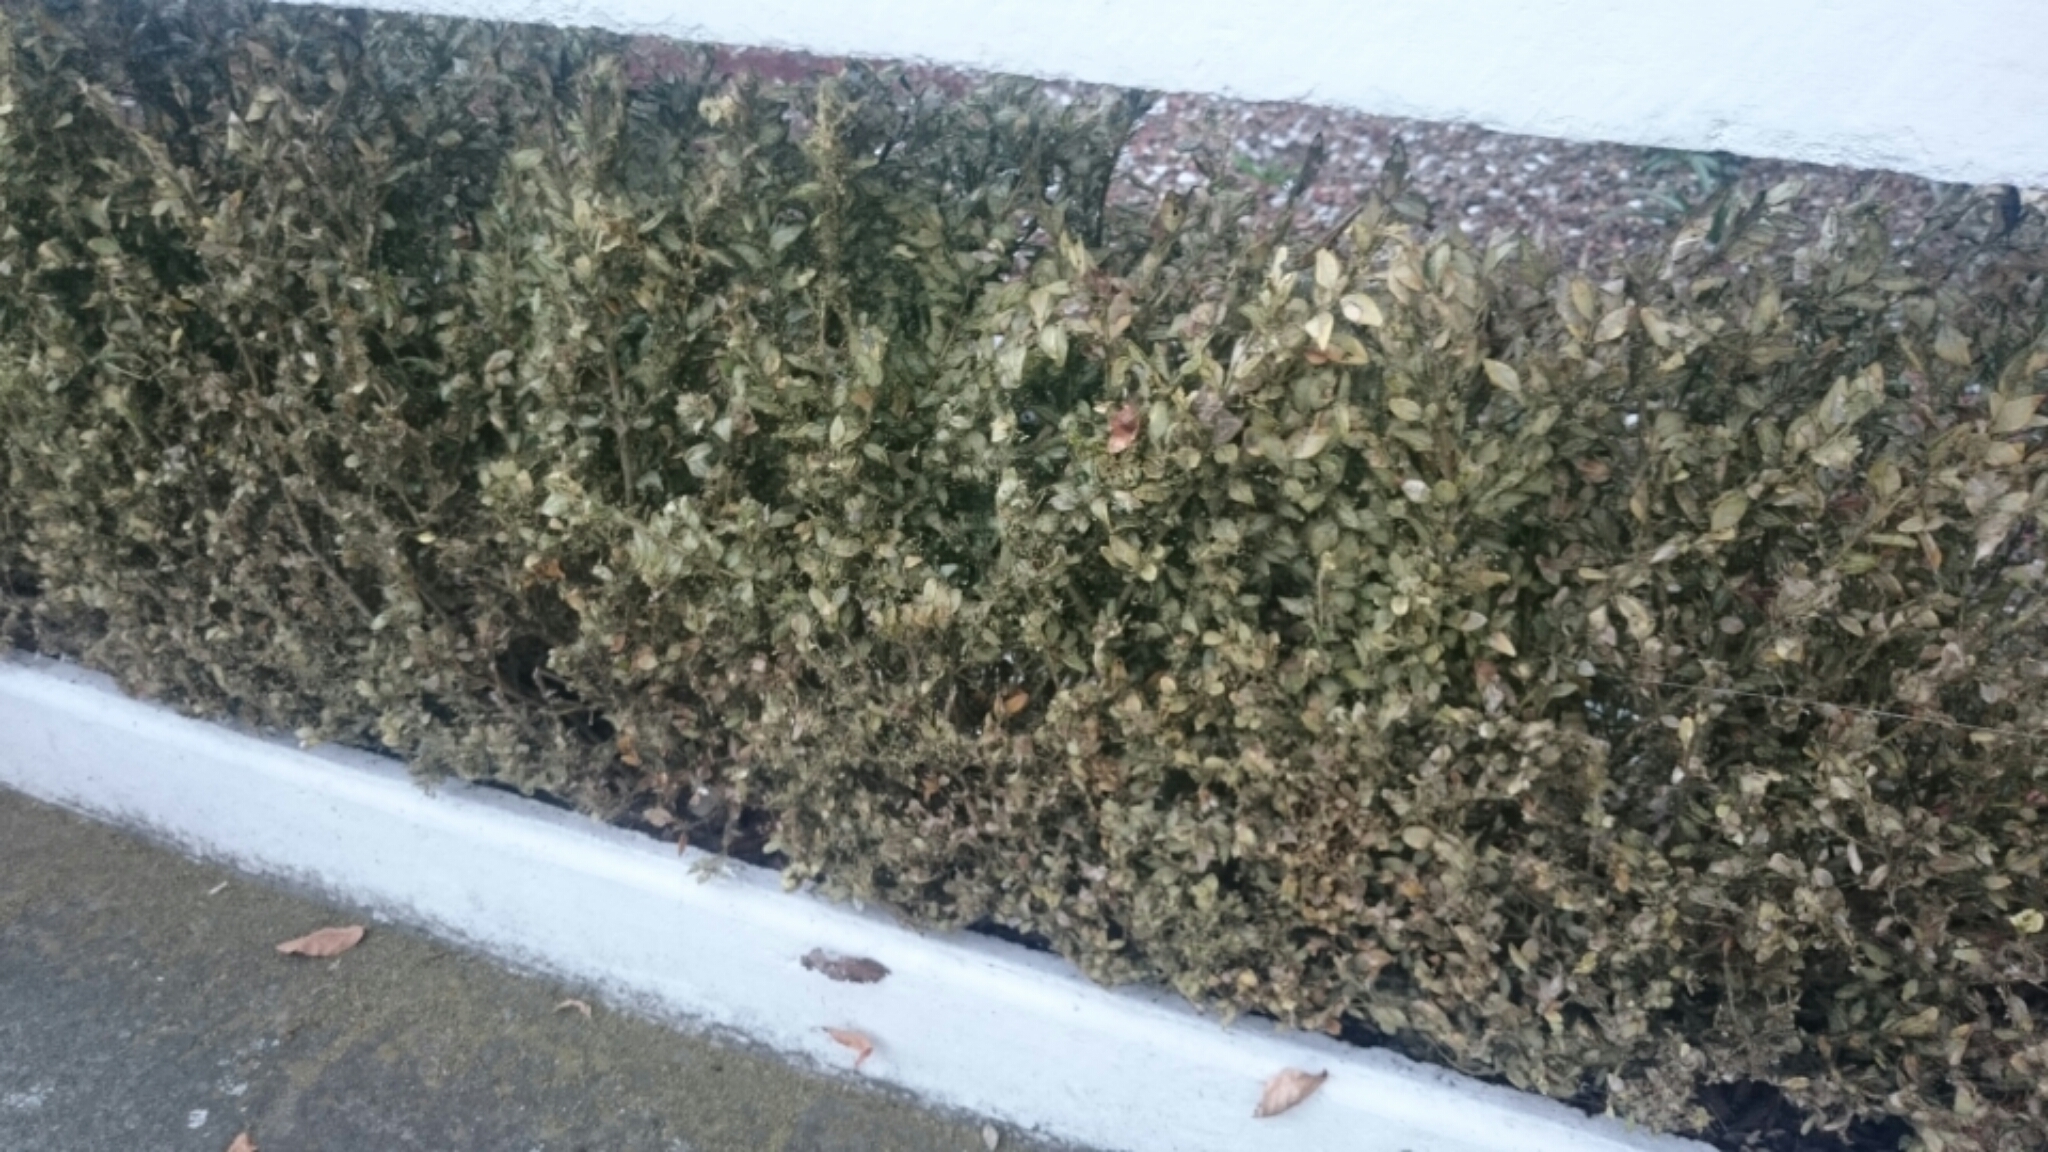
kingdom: Animalia
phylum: Arthropoda
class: Insecta
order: Lepidoptera
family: Crambidae
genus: Cydalima
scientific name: Cydalima perspectalis
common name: Box tree moth
